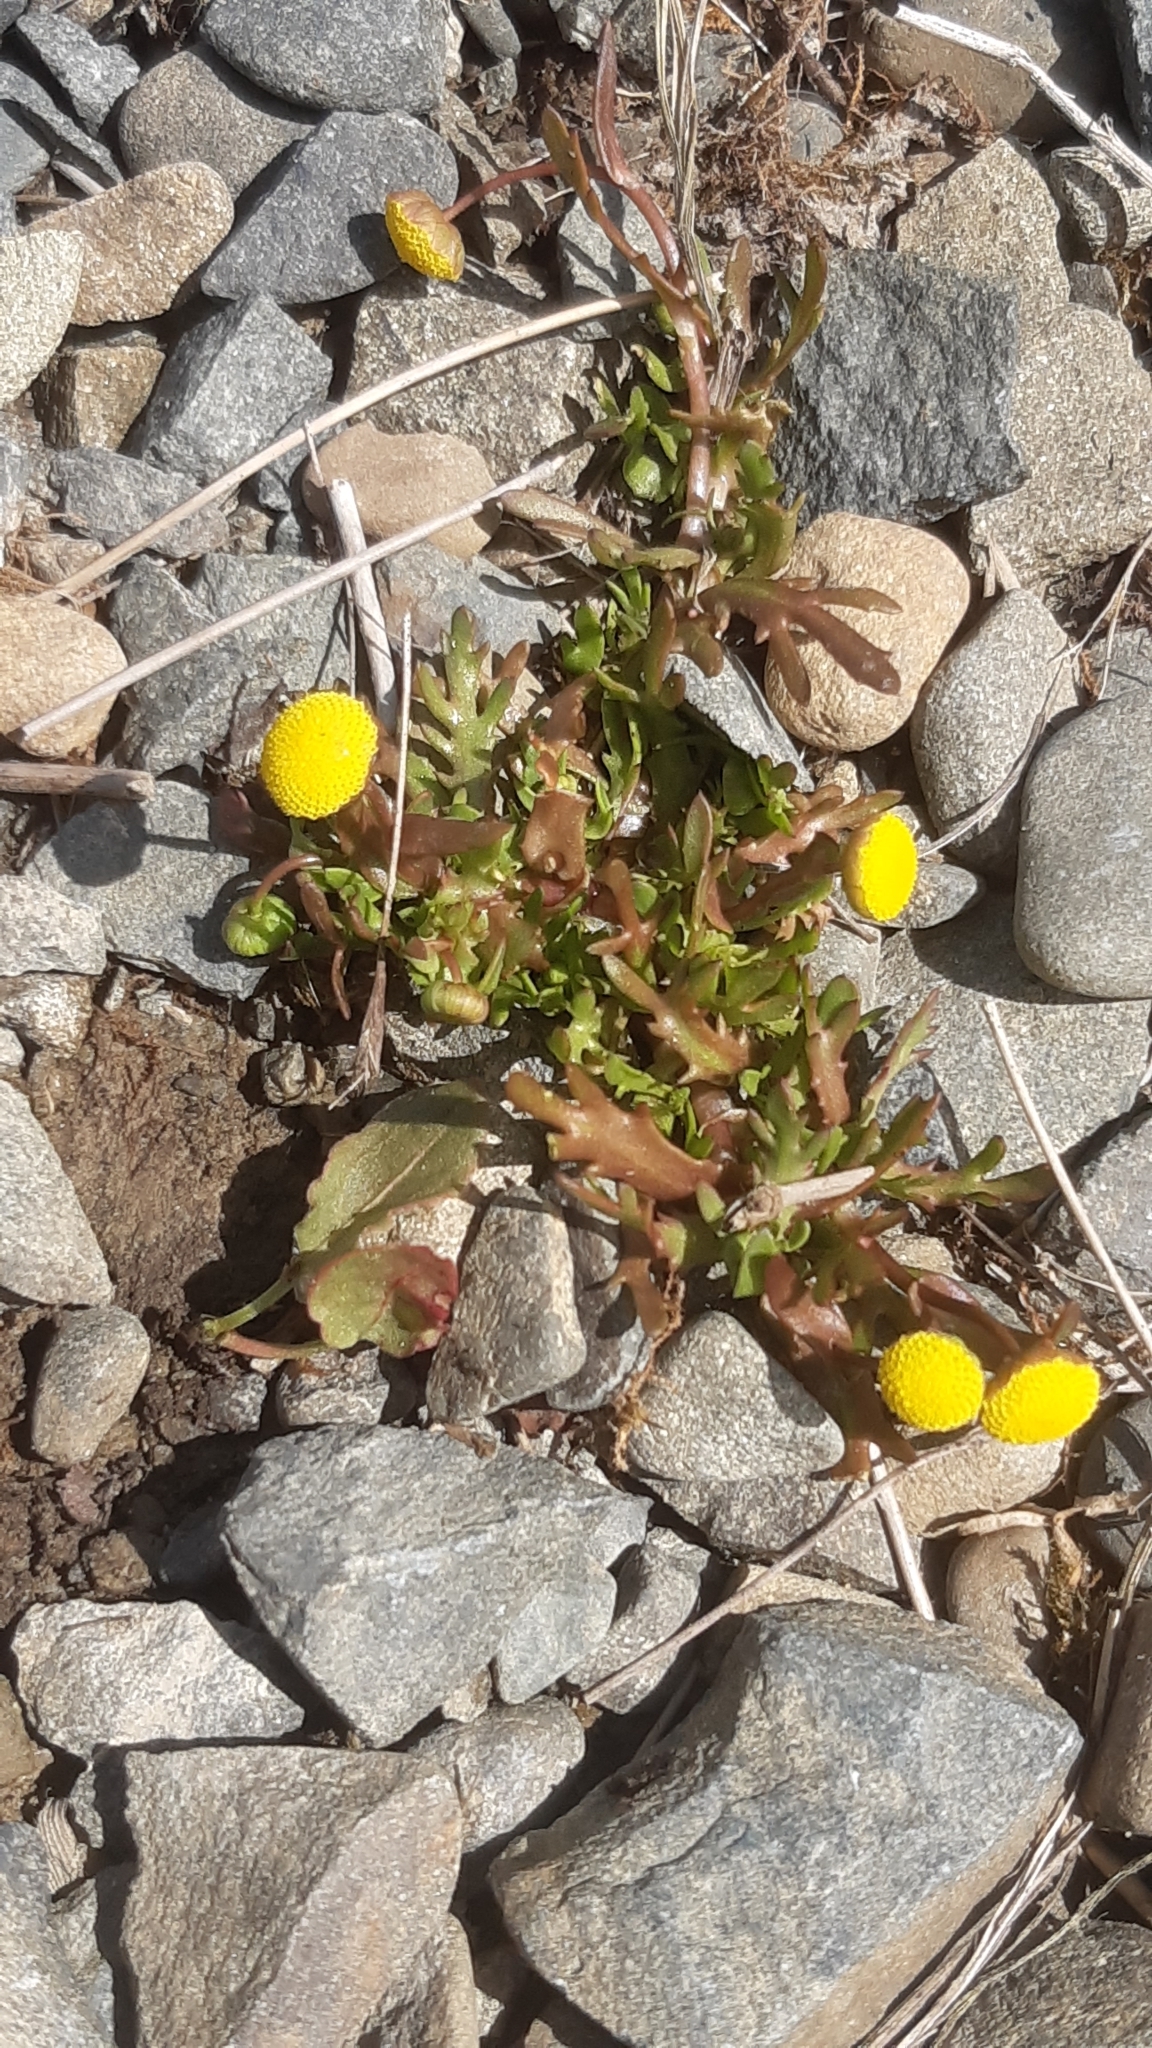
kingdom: Plantae
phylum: Tracheophyta
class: Magnoliopsida
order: Asterales
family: Asteraceae
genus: Cotula
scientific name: Cotula coronopifolia
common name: Buttonweed
